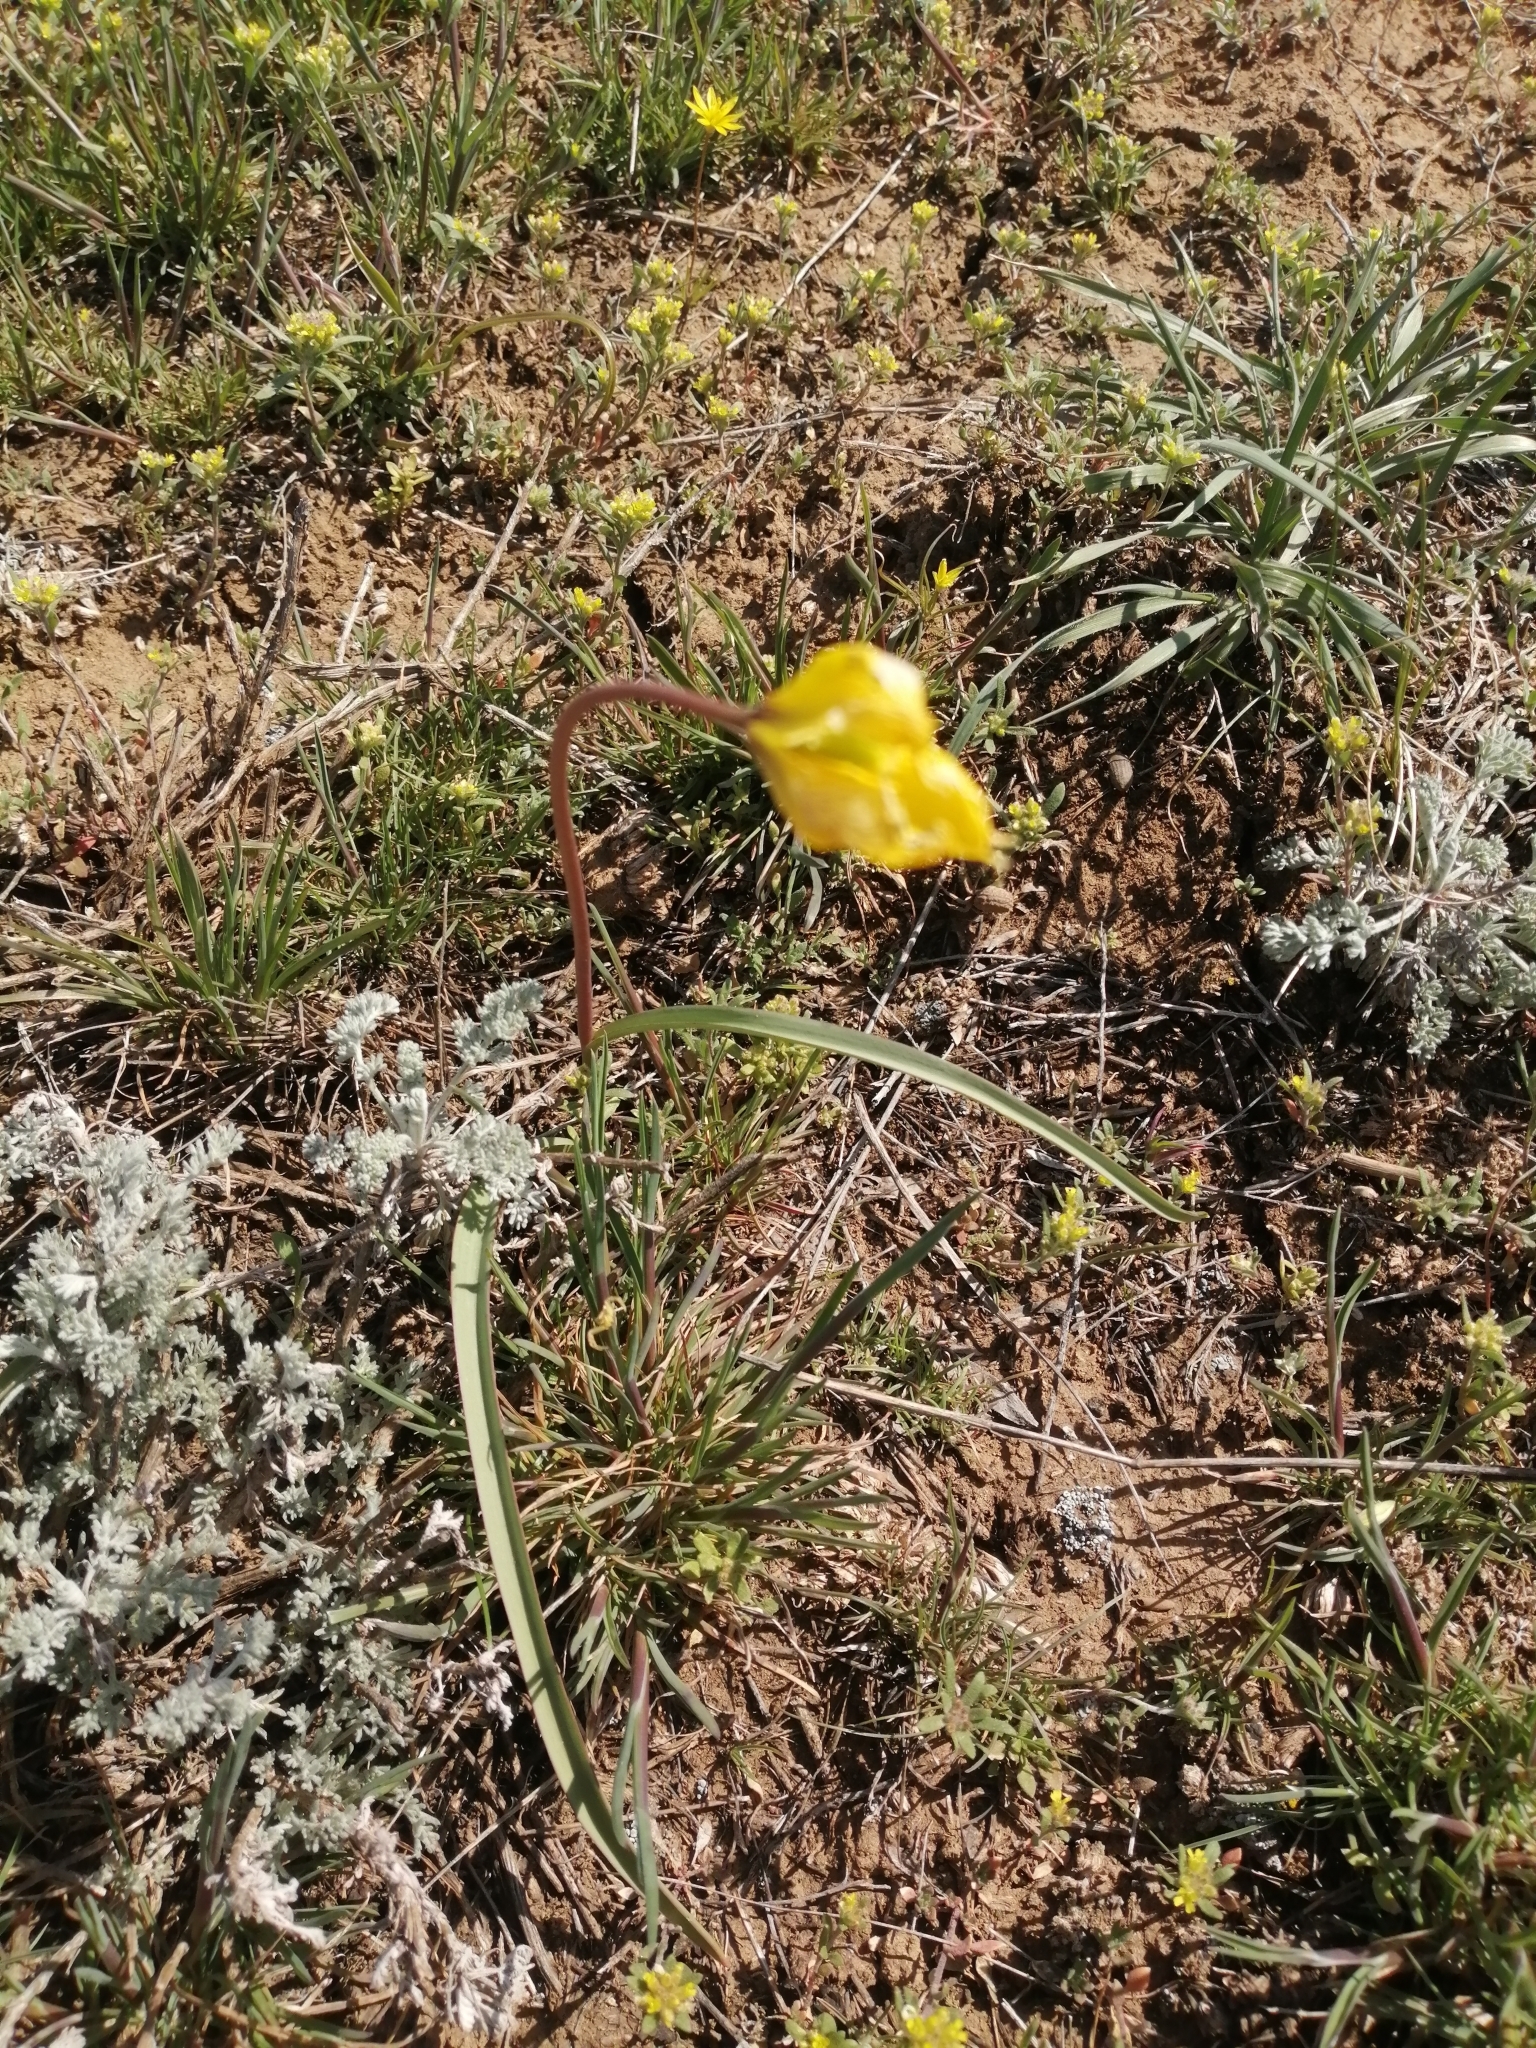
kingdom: Plantae
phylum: Tracheophyta
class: Liliopsida
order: Liliales
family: Liliaceae
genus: Tulipa
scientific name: Tulipa sylvestris
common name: Wild tulip
